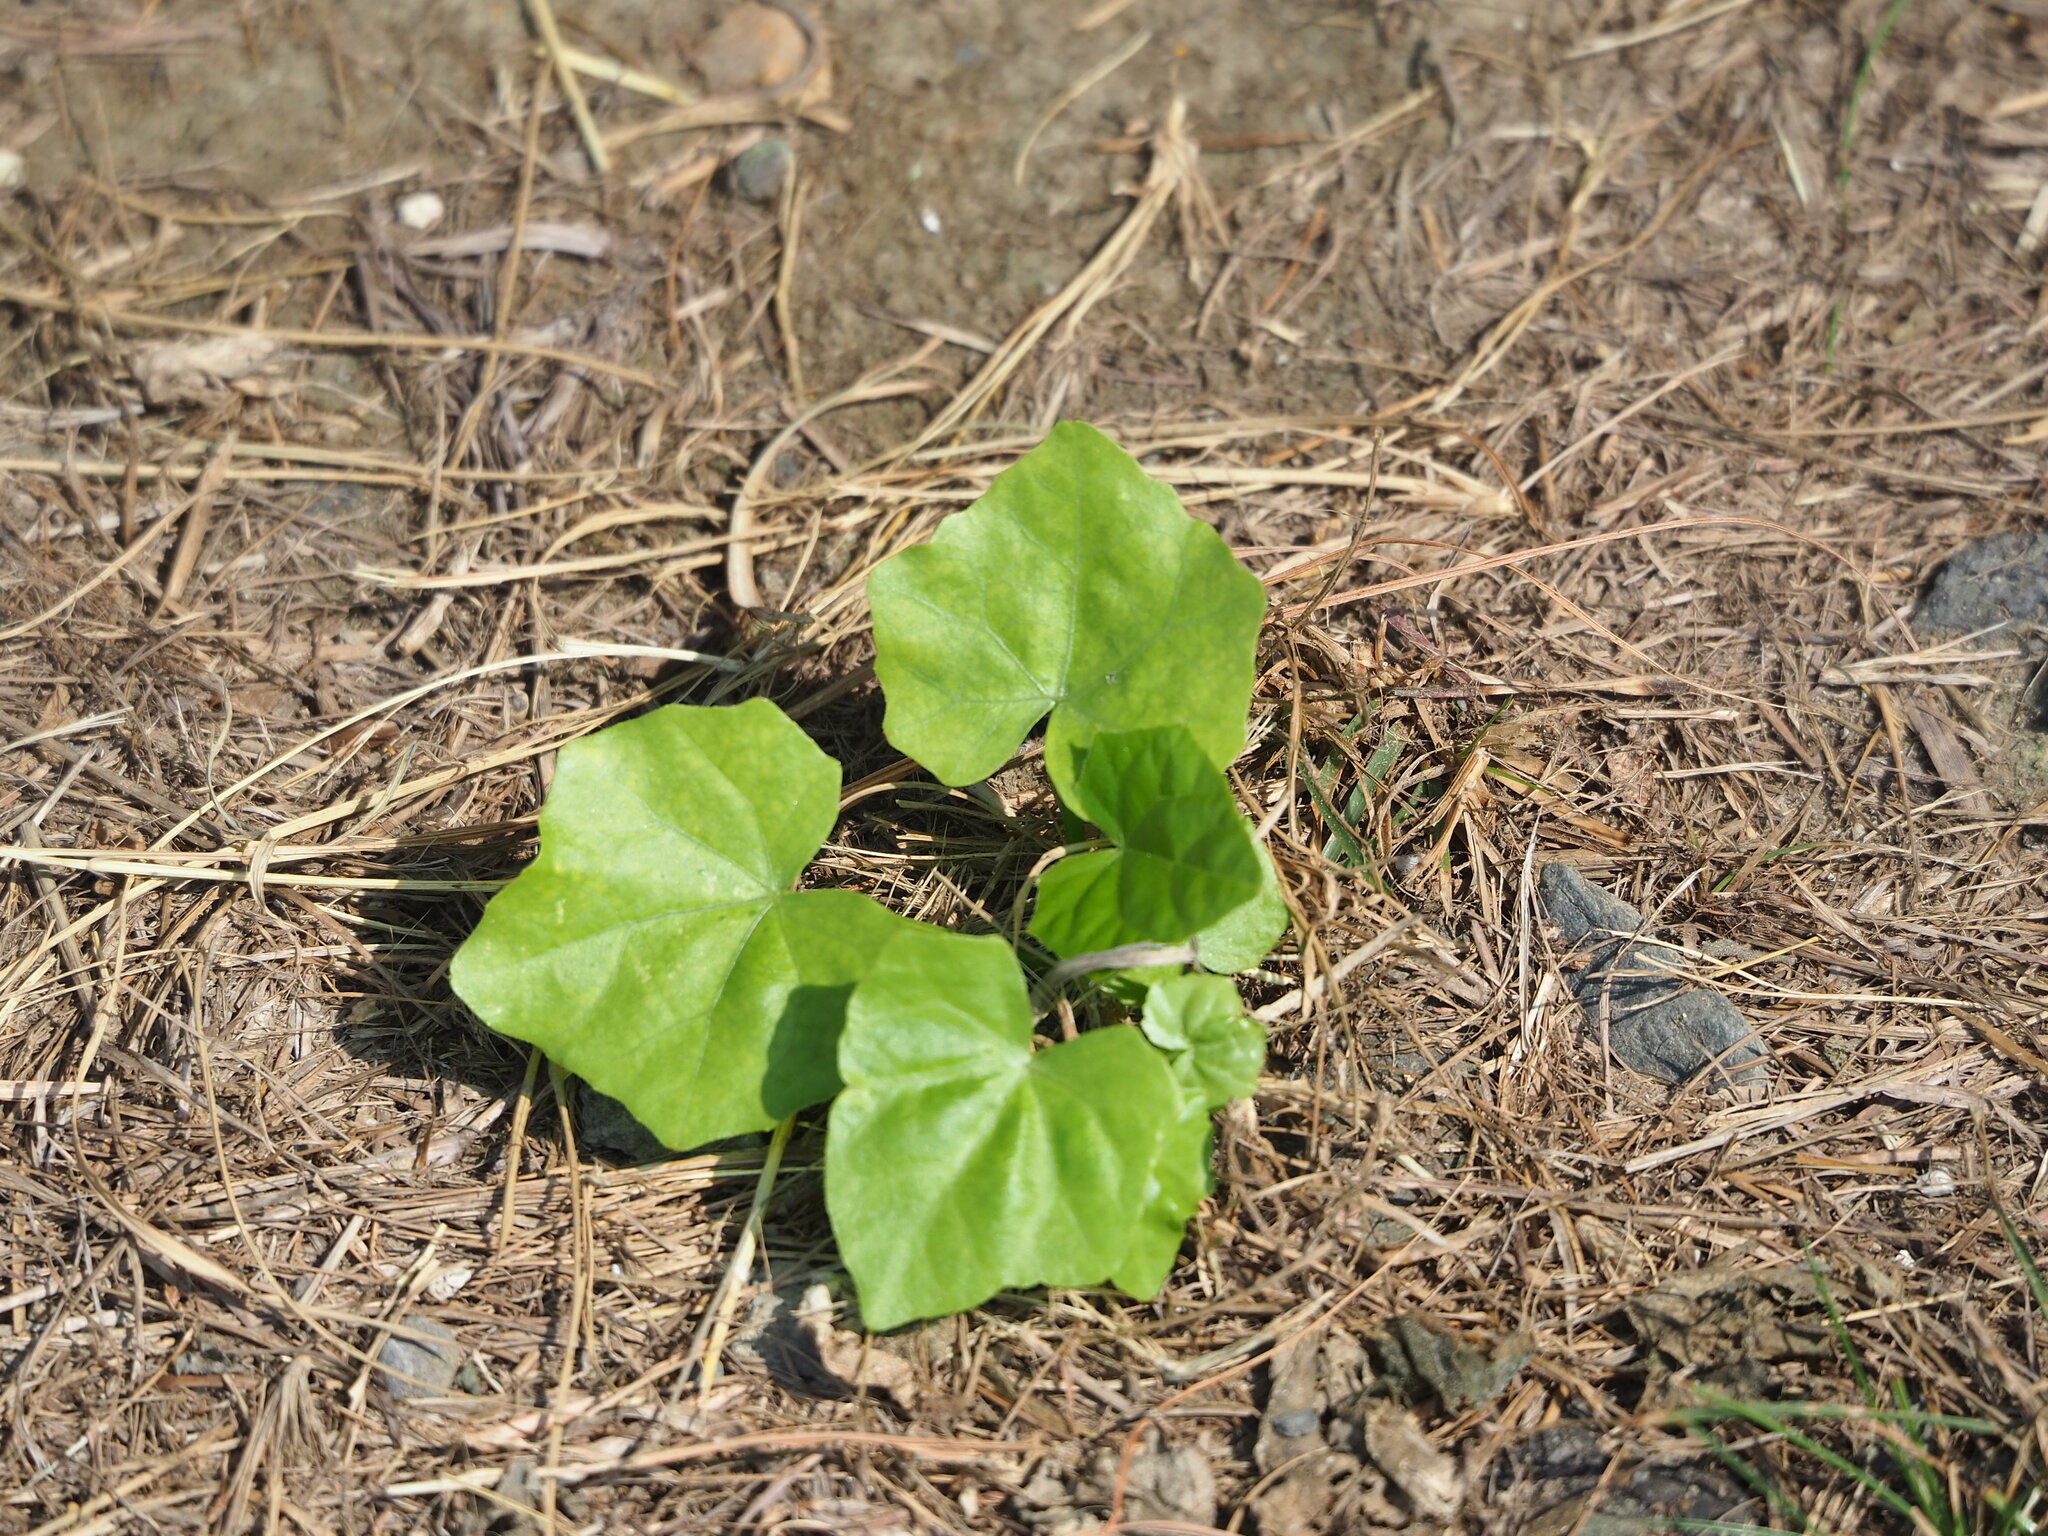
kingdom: Plantae
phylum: Tracheophyta
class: Magnoliopsida
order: Cucurbitales
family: Cucurbitaceae
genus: Coccinia
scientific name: Coccinia grandis
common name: Ivy gourd
